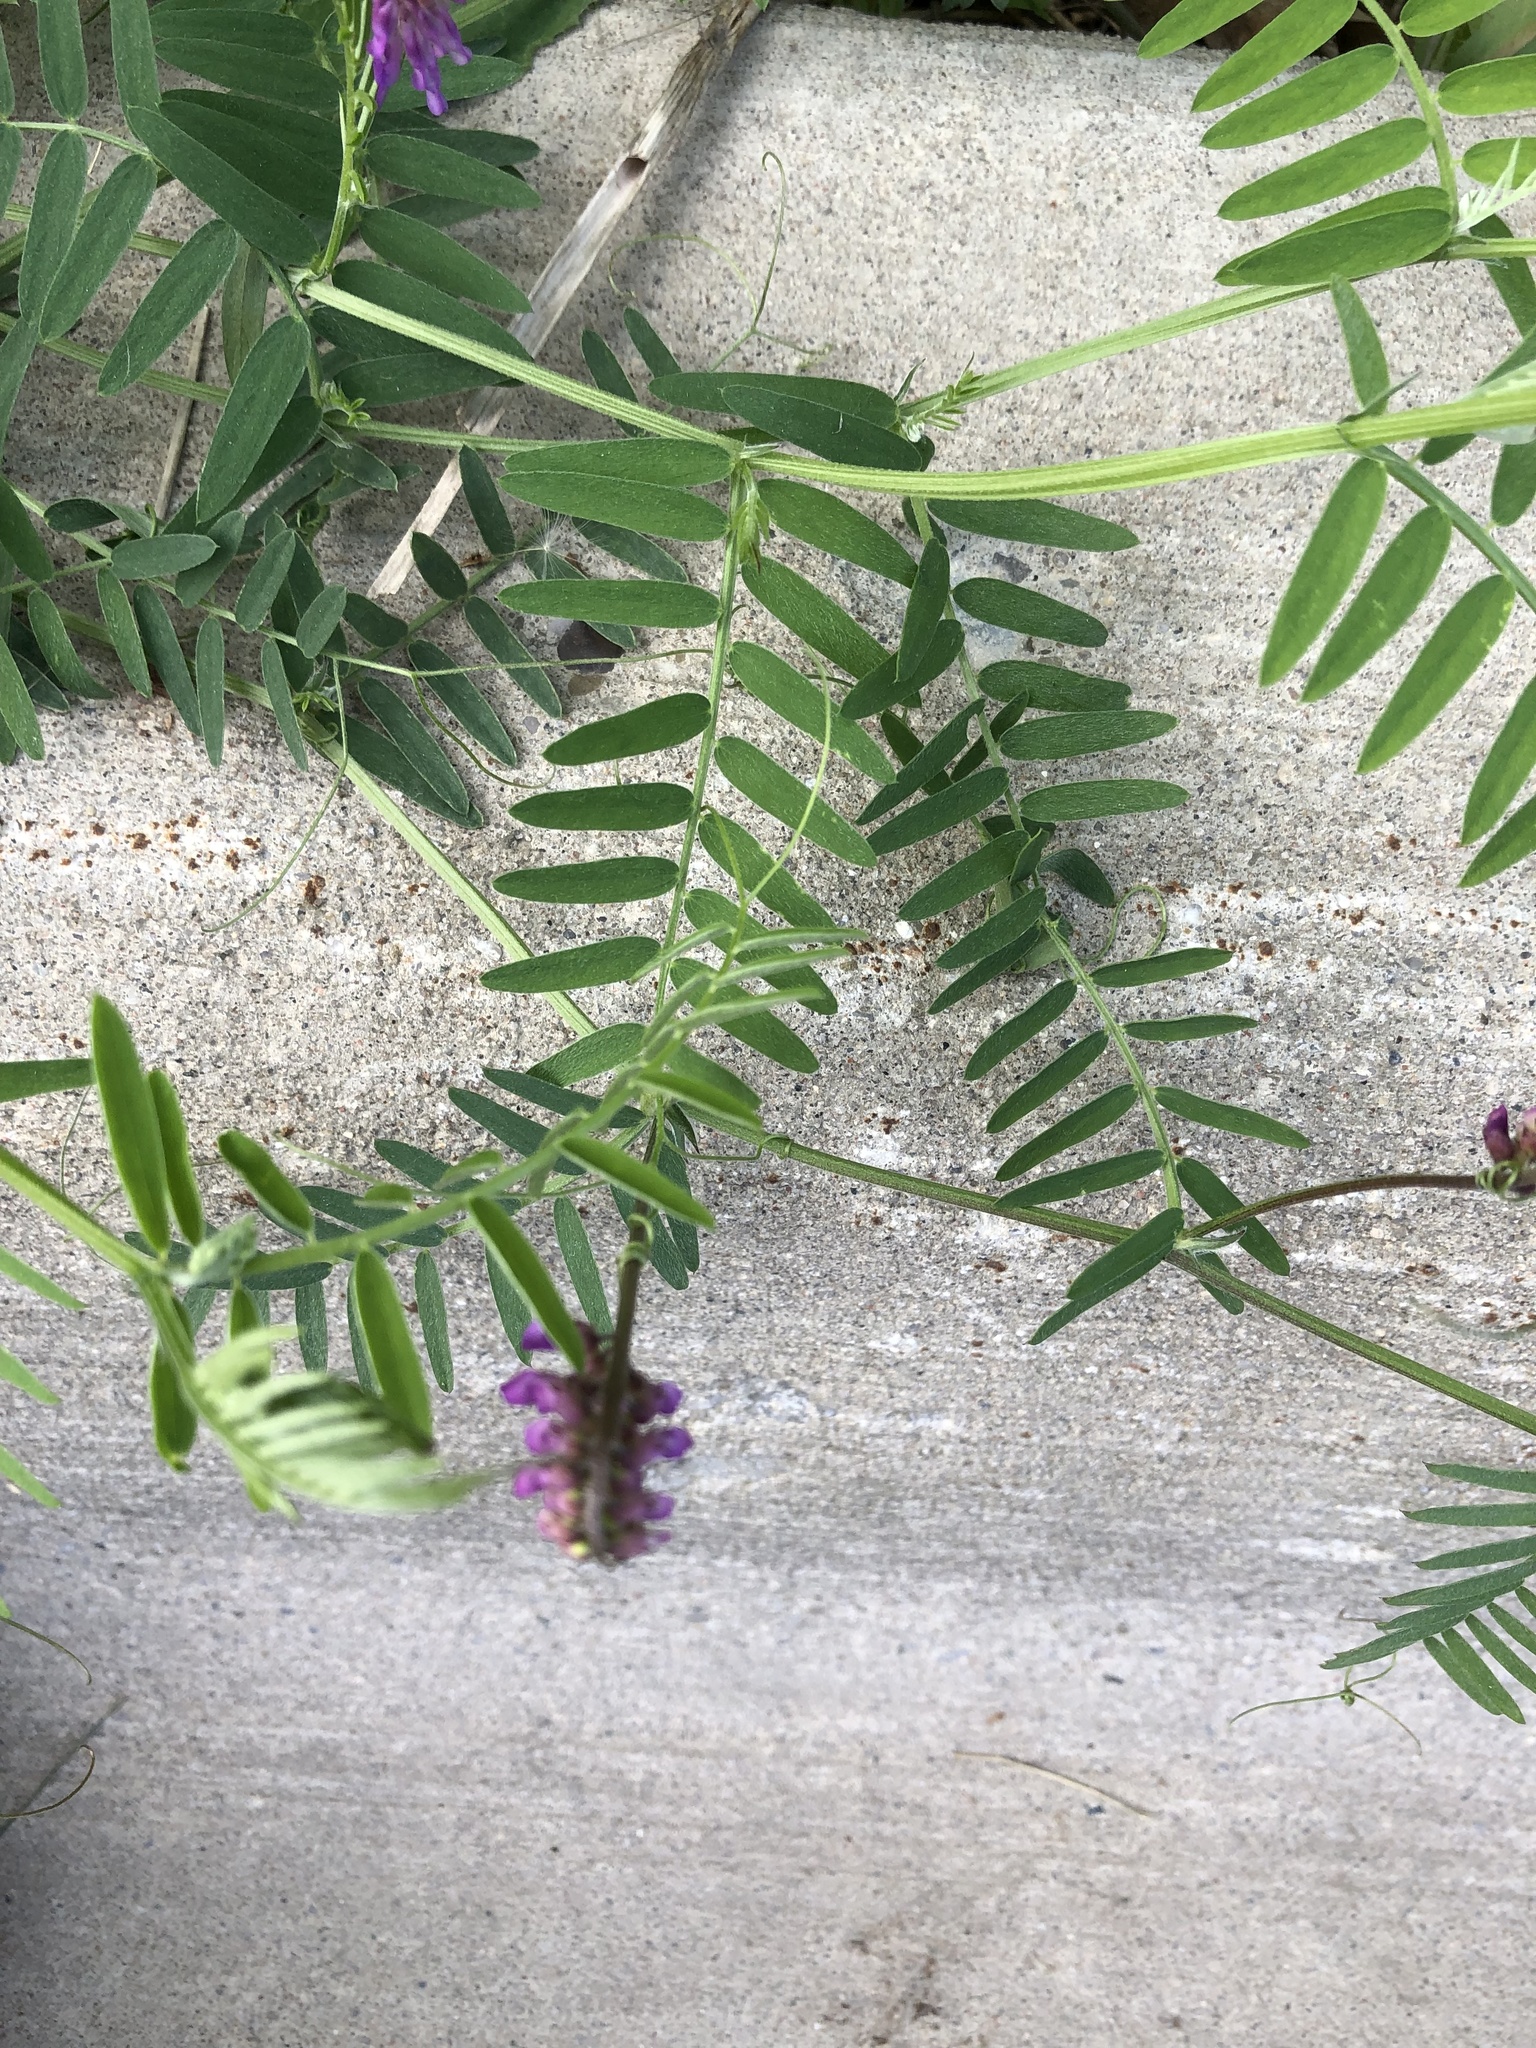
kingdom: Plantae
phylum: Tracheophyta
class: Magnoliopsida
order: Fabales
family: Fabaceae
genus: Vicia
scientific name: Vicia cracca
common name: Bird vetch
